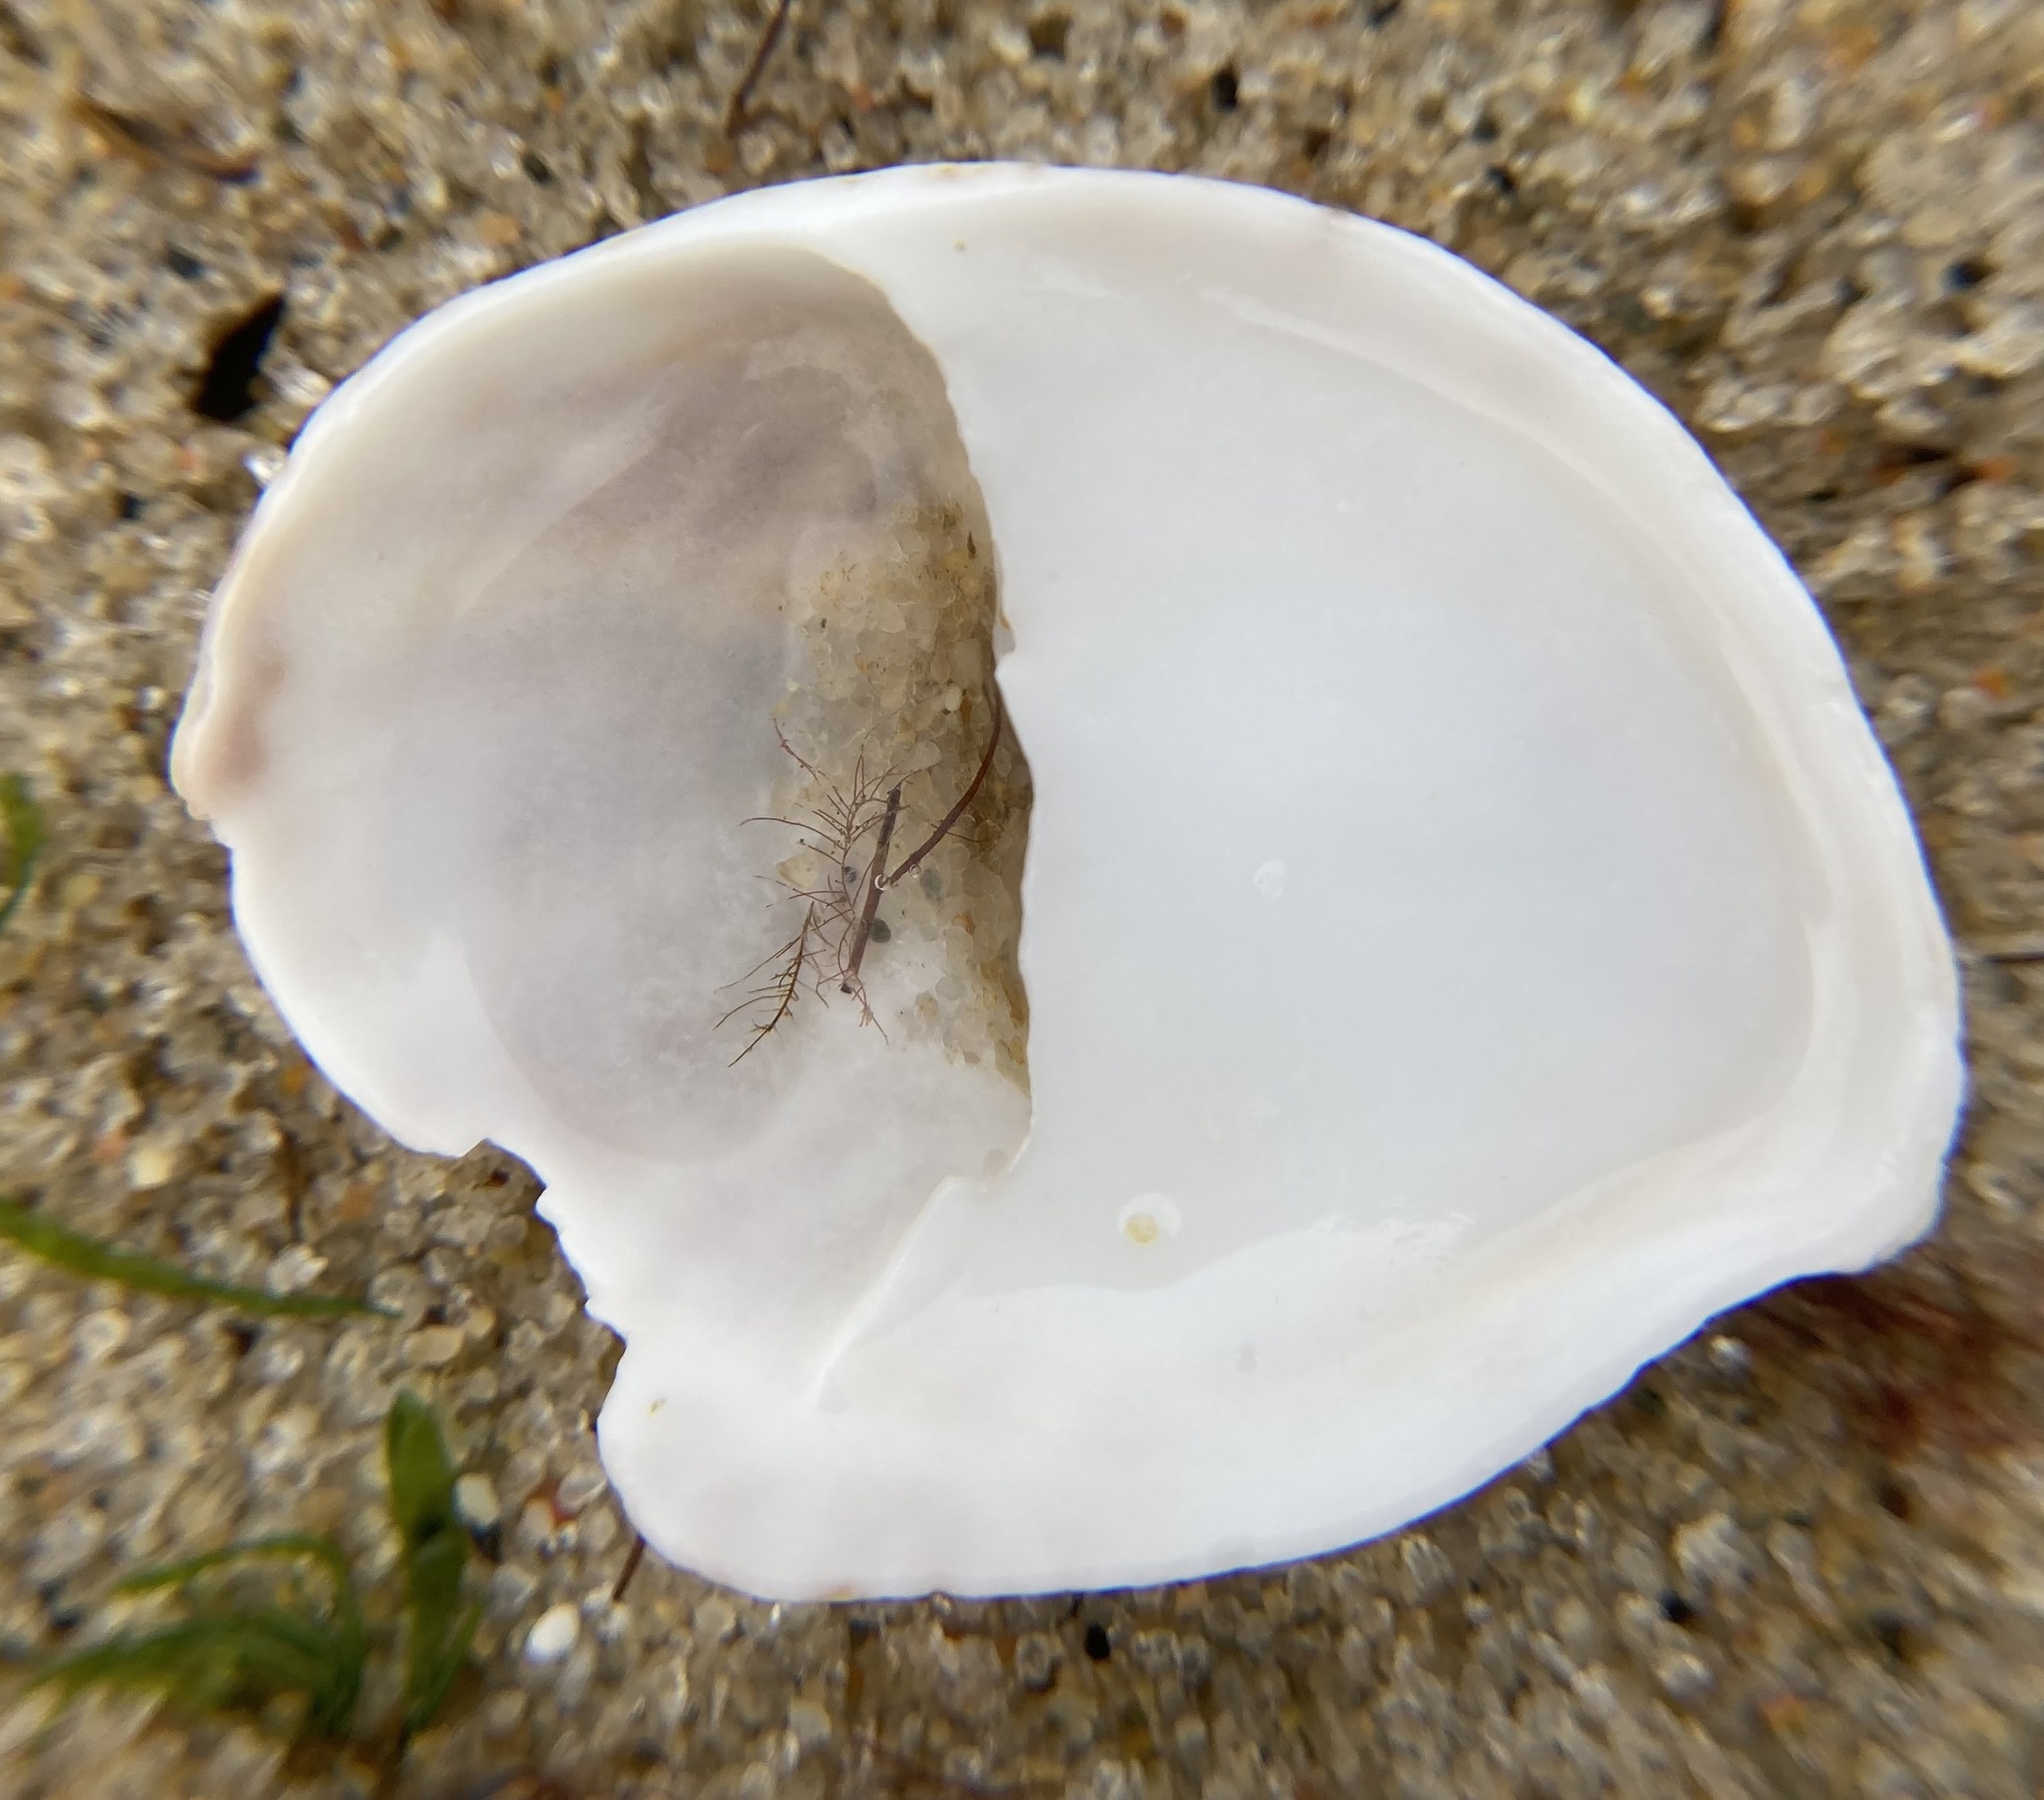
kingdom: Animalia
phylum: Mollusca
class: Gastropoda
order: Littorinimorpha
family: Calyptraeidae
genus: Crepidula
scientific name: Crepidula fornicata
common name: Slipper limpet
